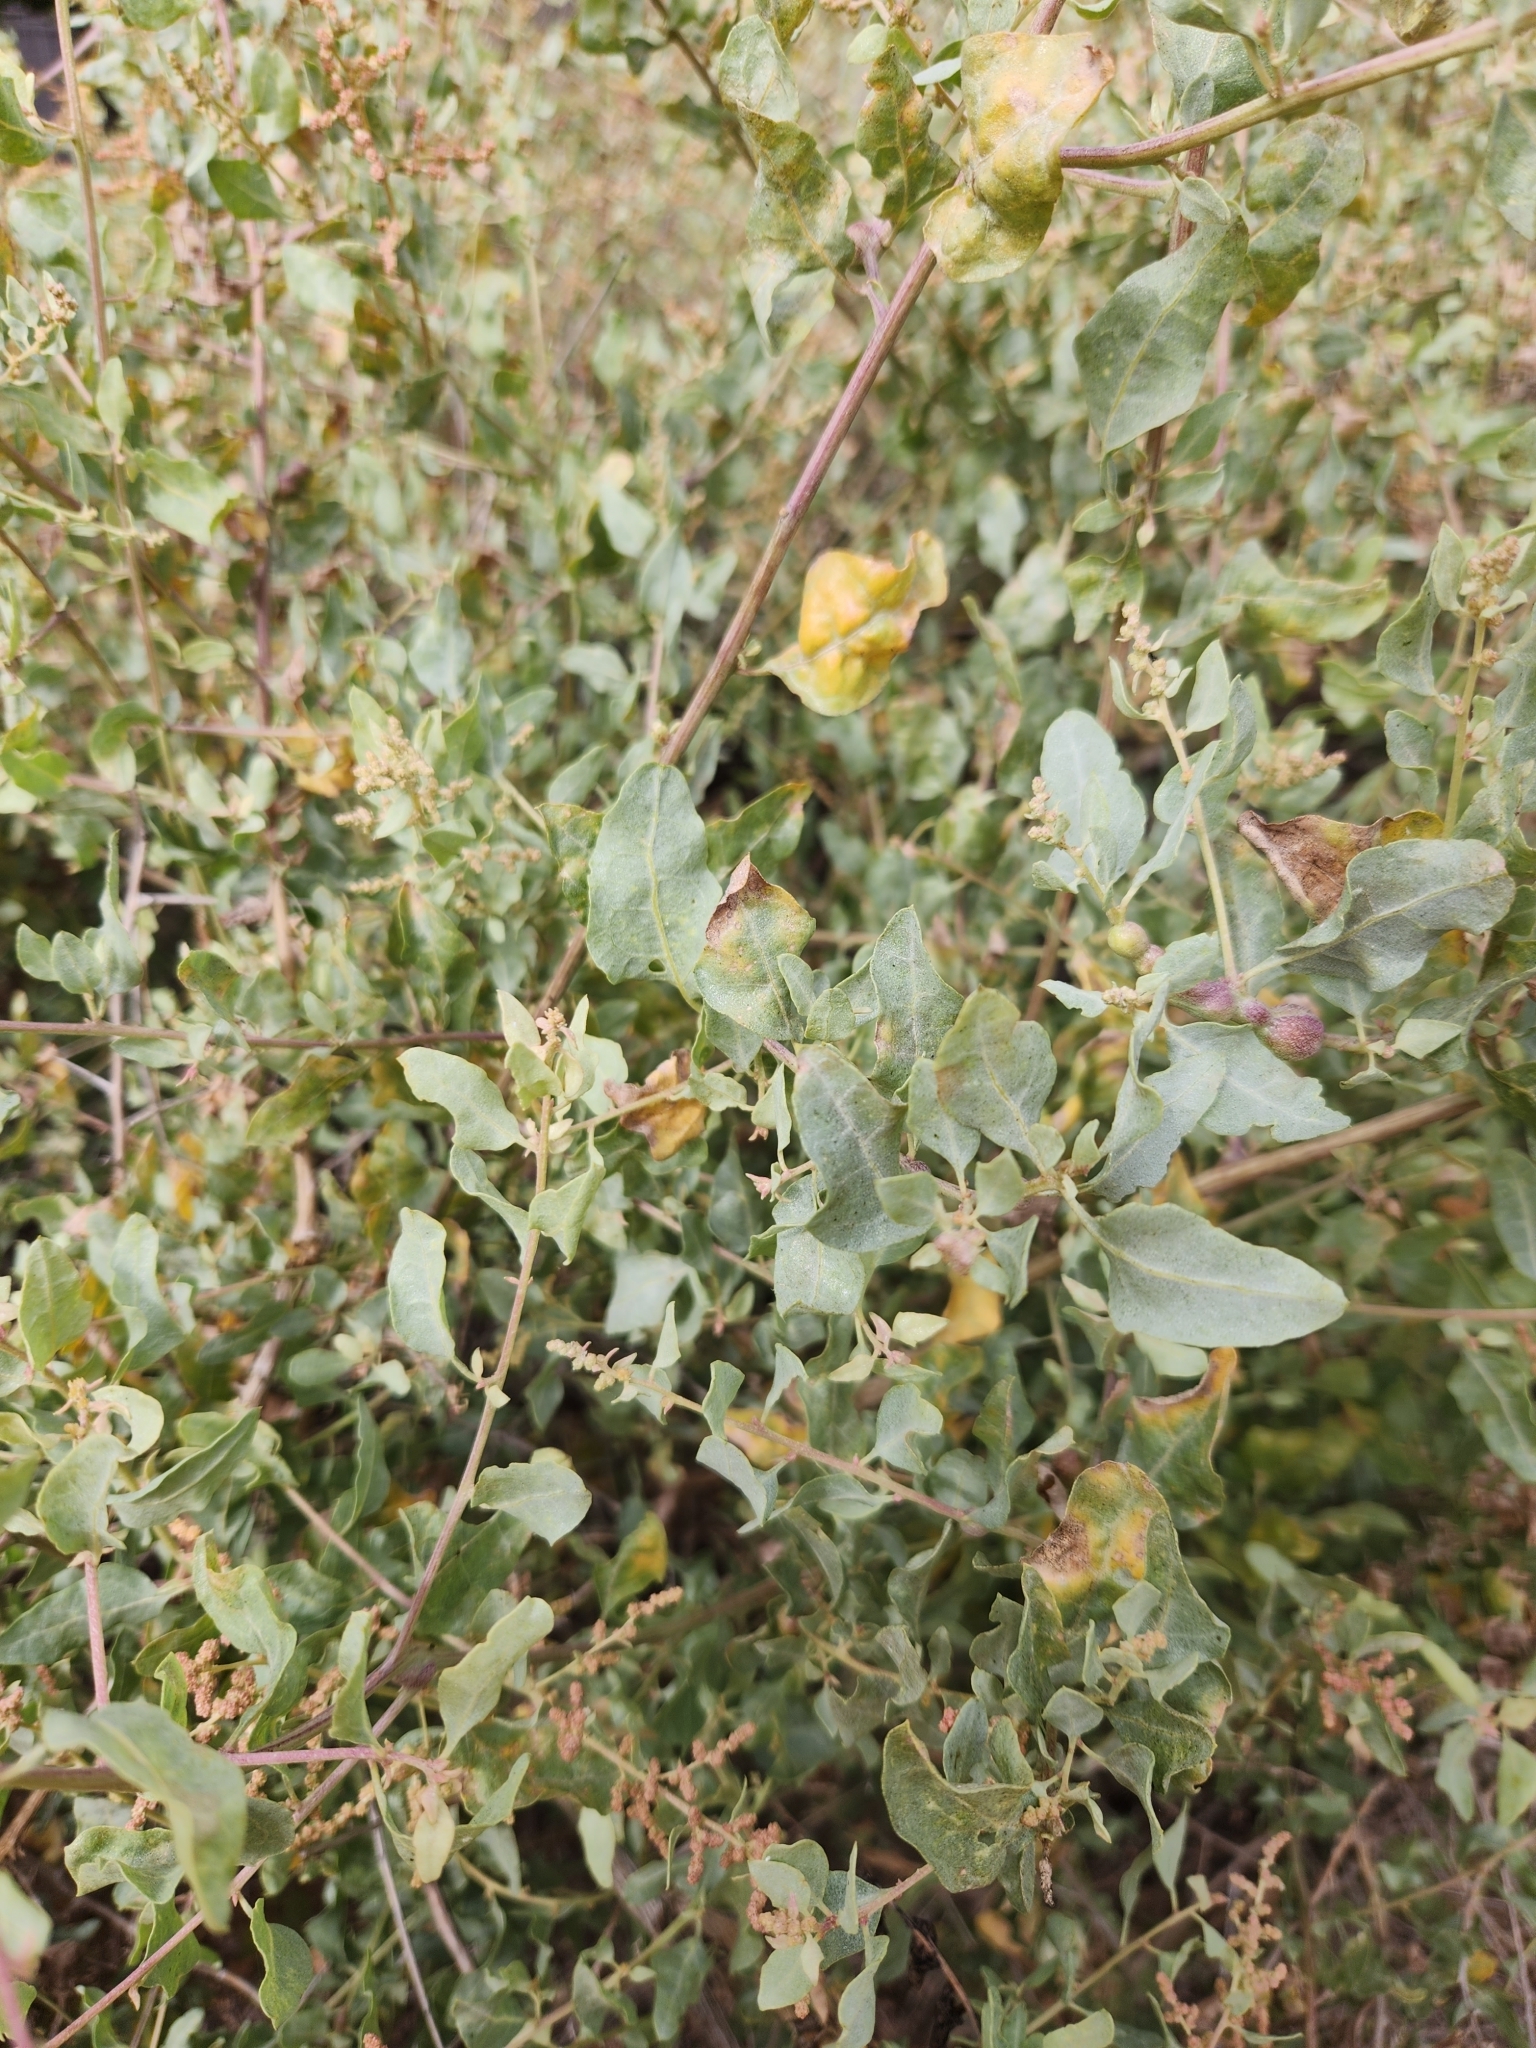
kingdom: Plantae
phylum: Tracheophyta
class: Magnoliopsida
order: Caryophyllales
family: Amaranthaceae
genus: Atriplex
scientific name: Atriplex lentiformis
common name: Big saltbush
